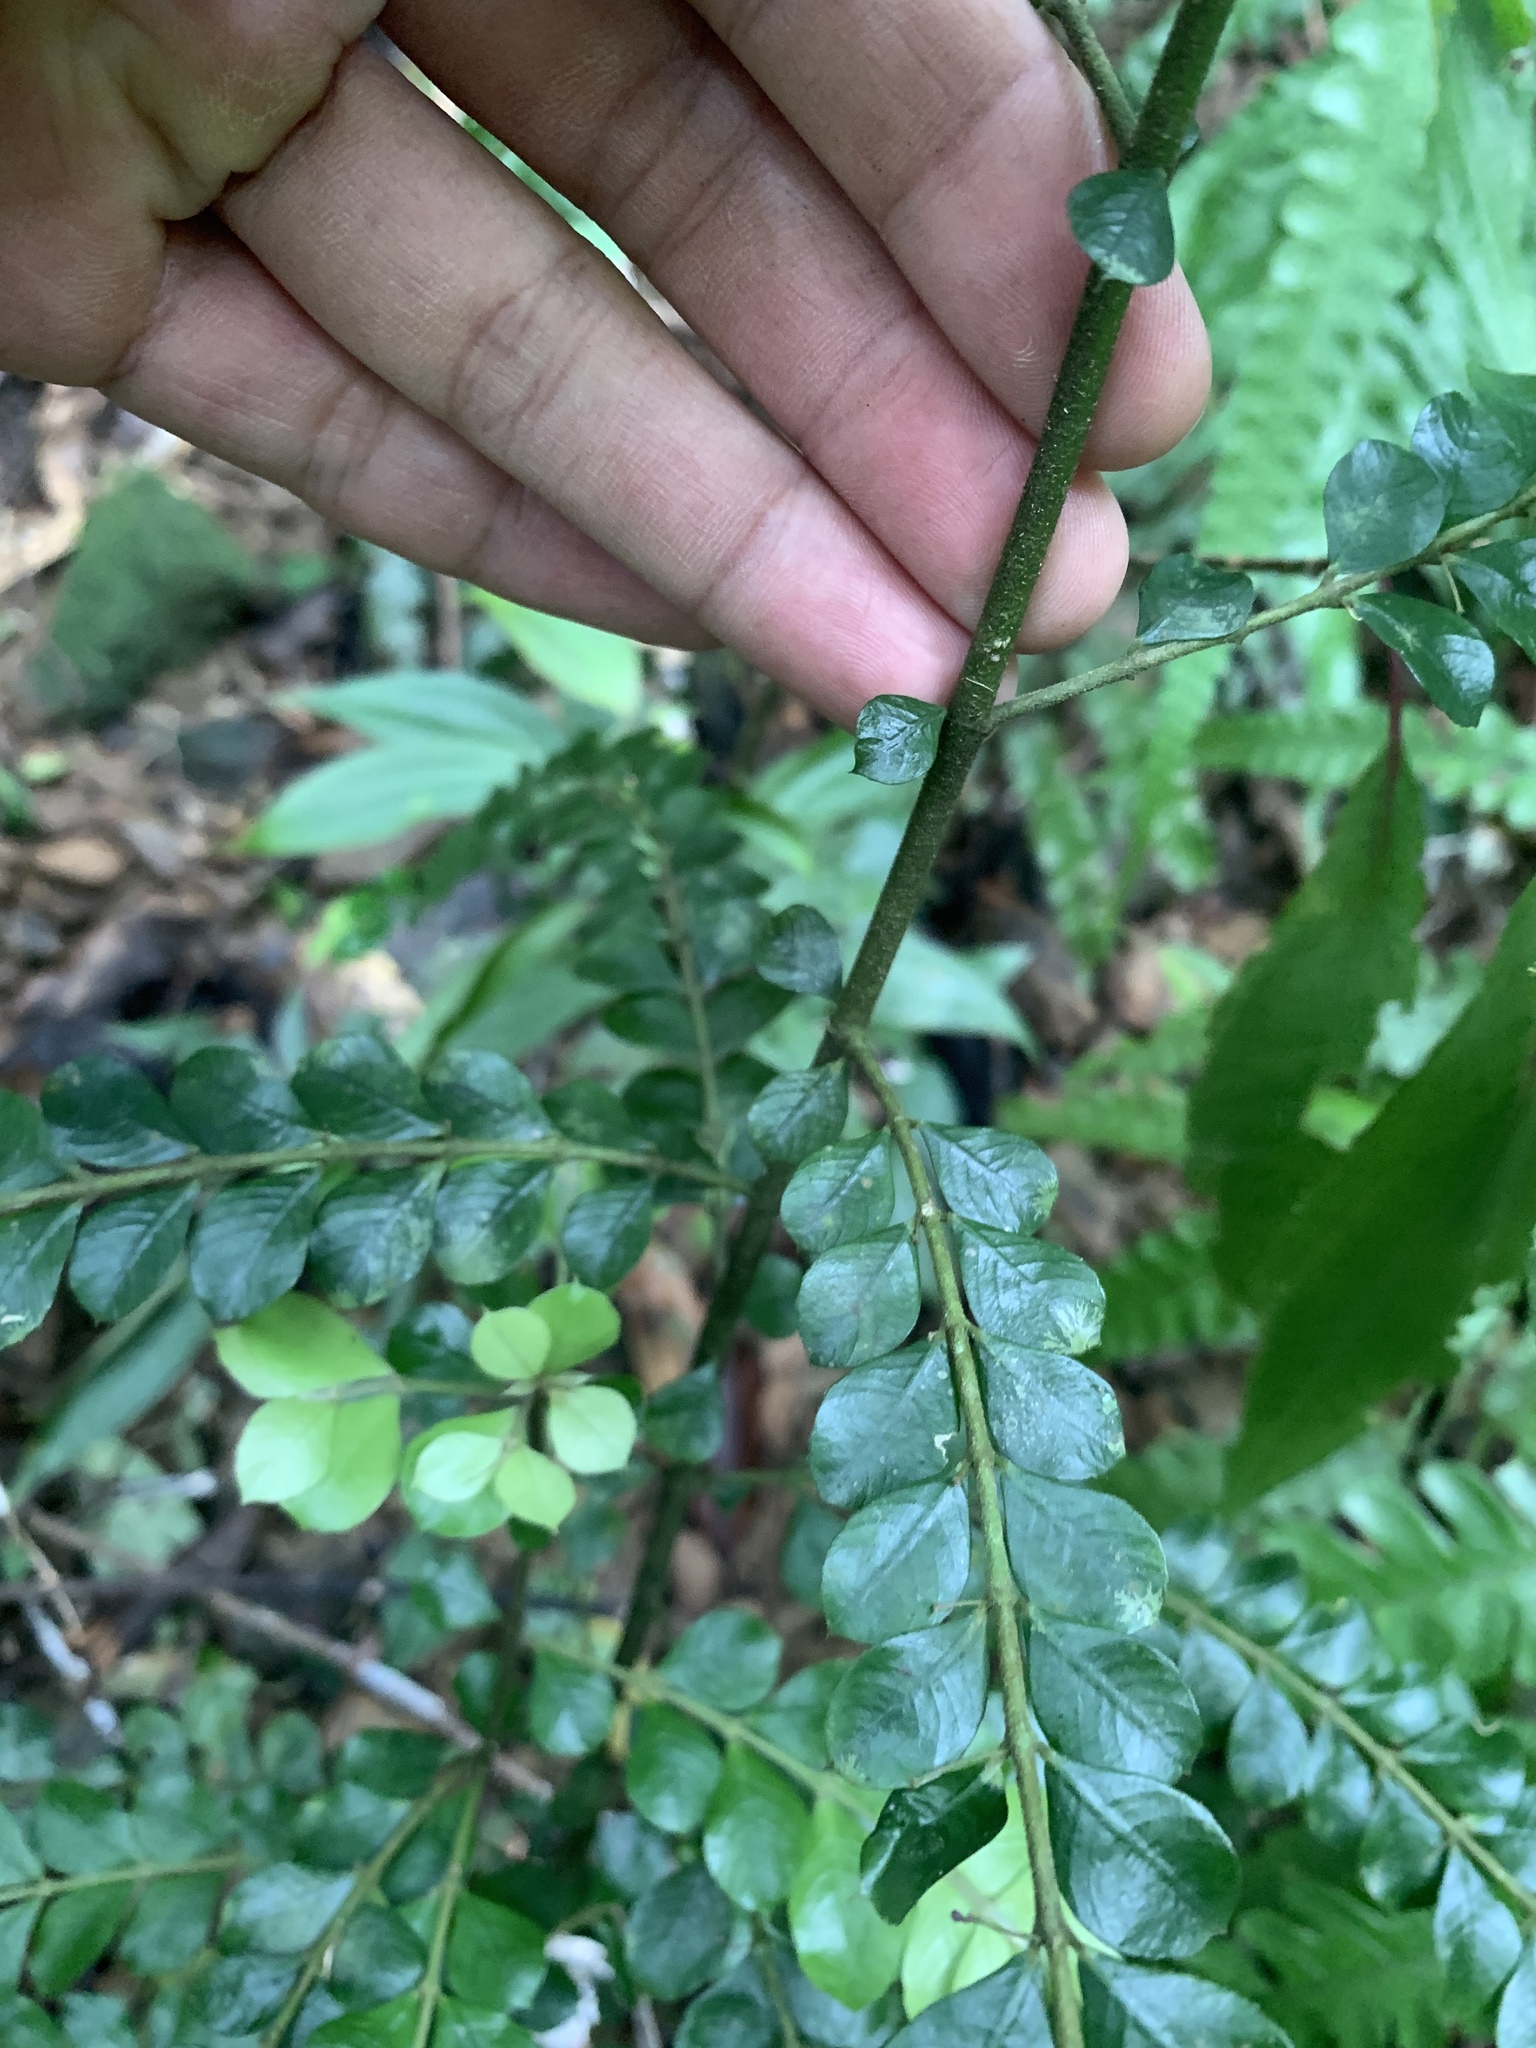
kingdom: Plantae
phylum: Tracheophyta
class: Magnoliopsida
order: Gentianales
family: Rubiaceae
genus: Lasianthus
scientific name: Lasianthus biflorus
